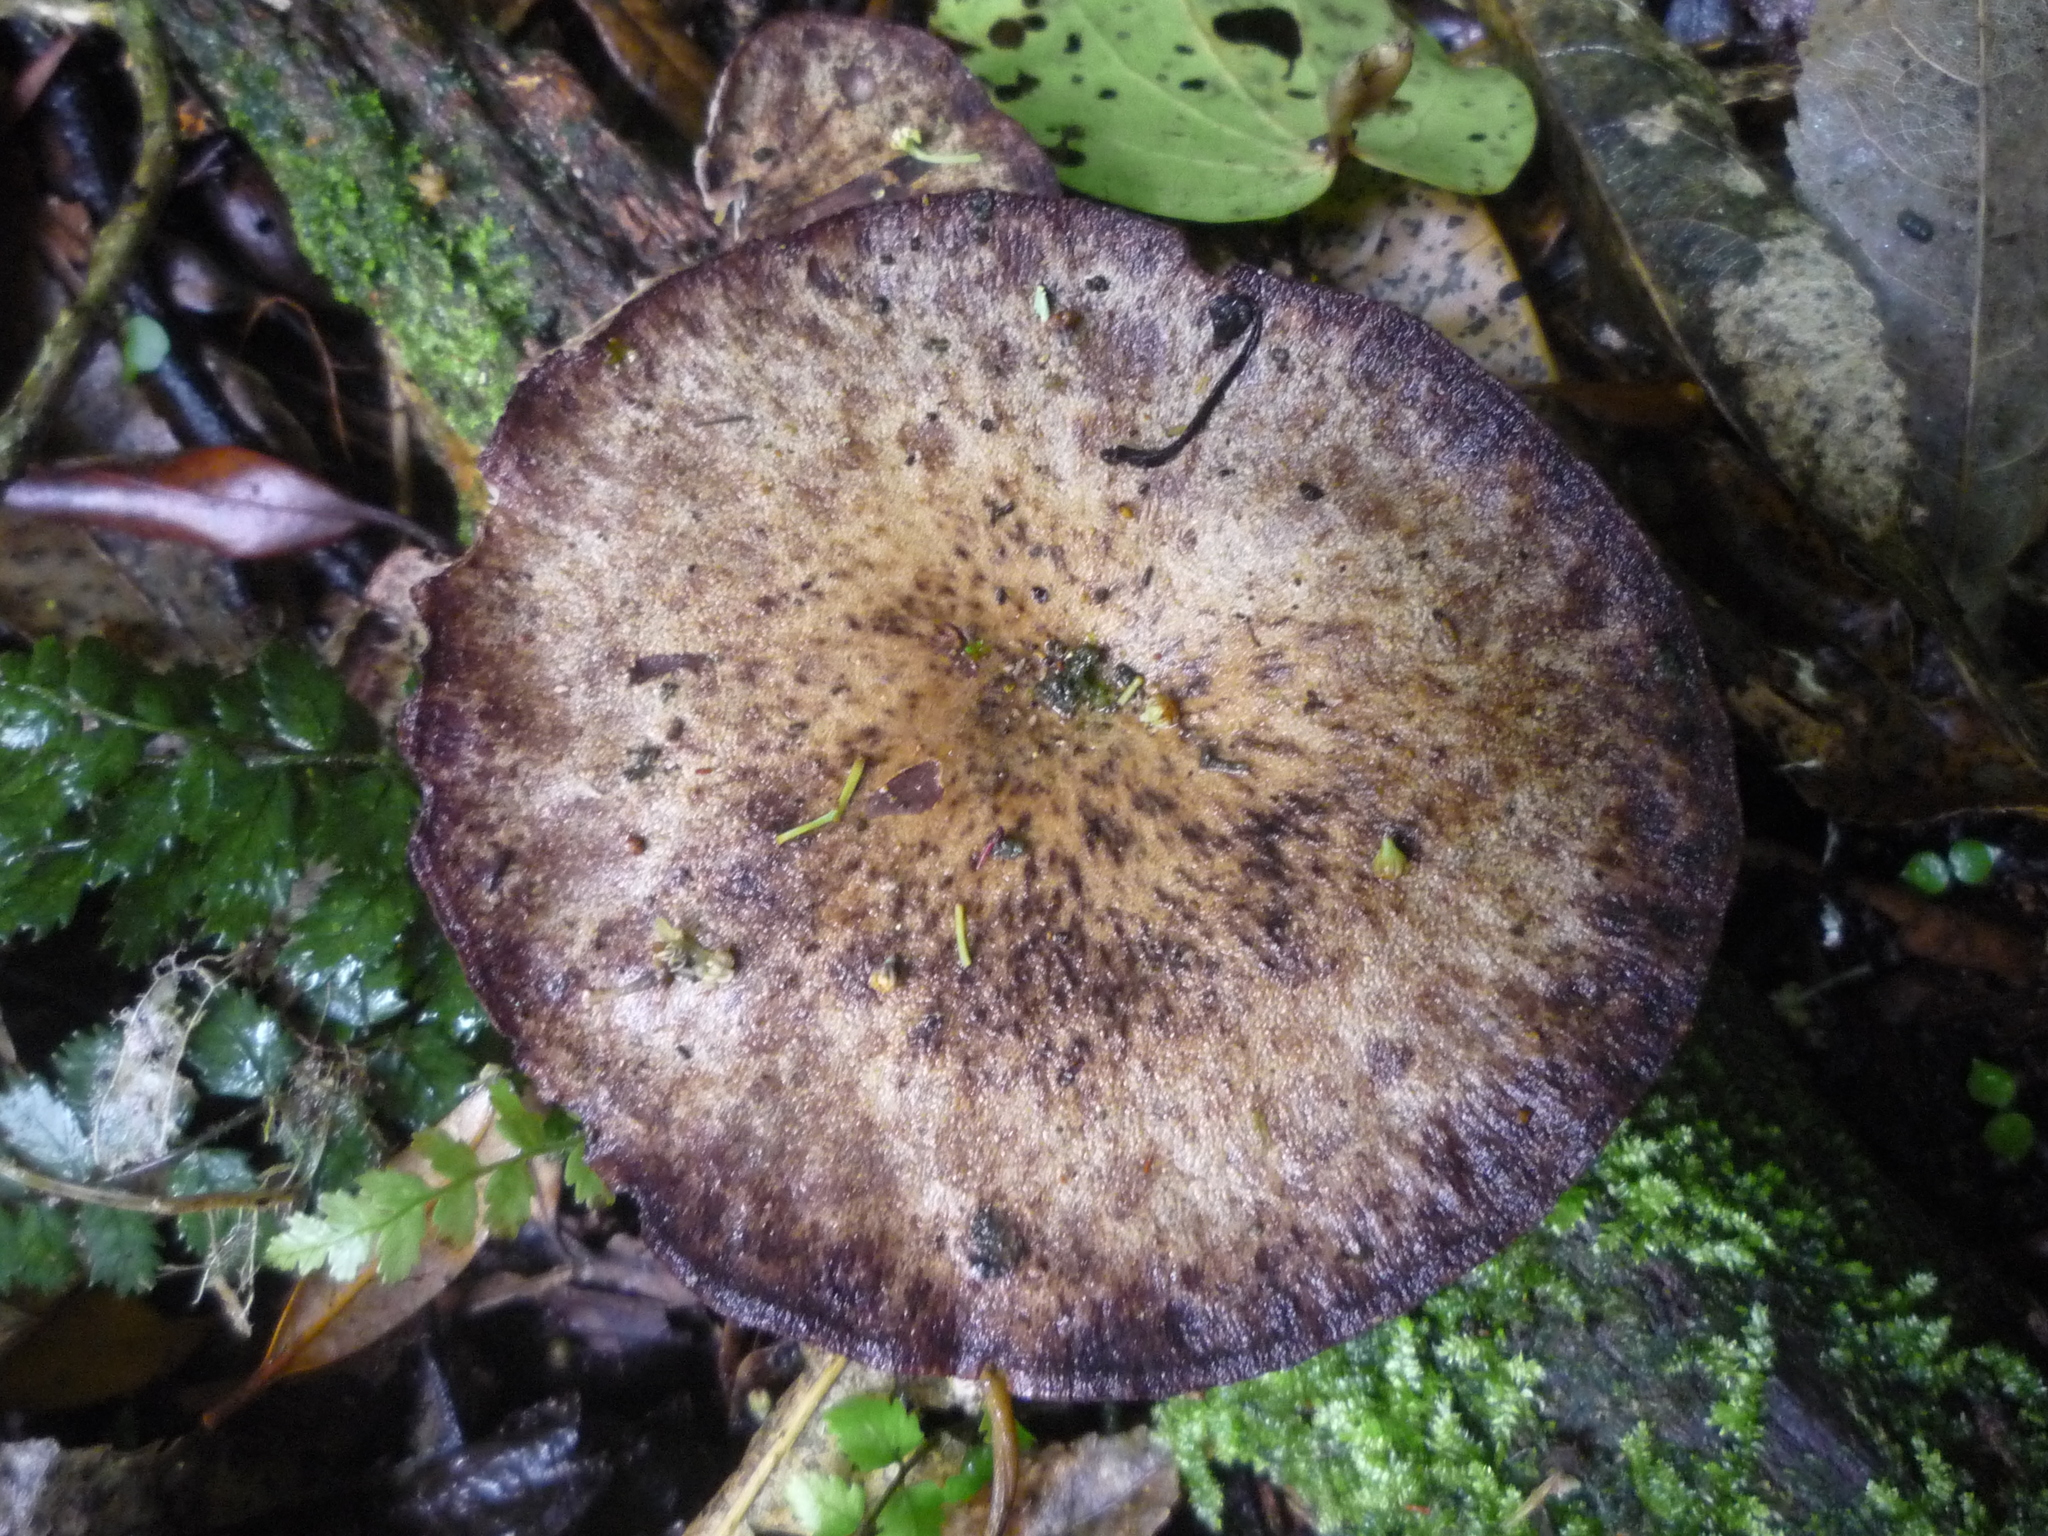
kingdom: Fungi
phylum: Basidiomycota
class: Agaricomycetes
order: Polyporales
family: Panaceae
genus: Panus
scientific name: Panus purpuratus
